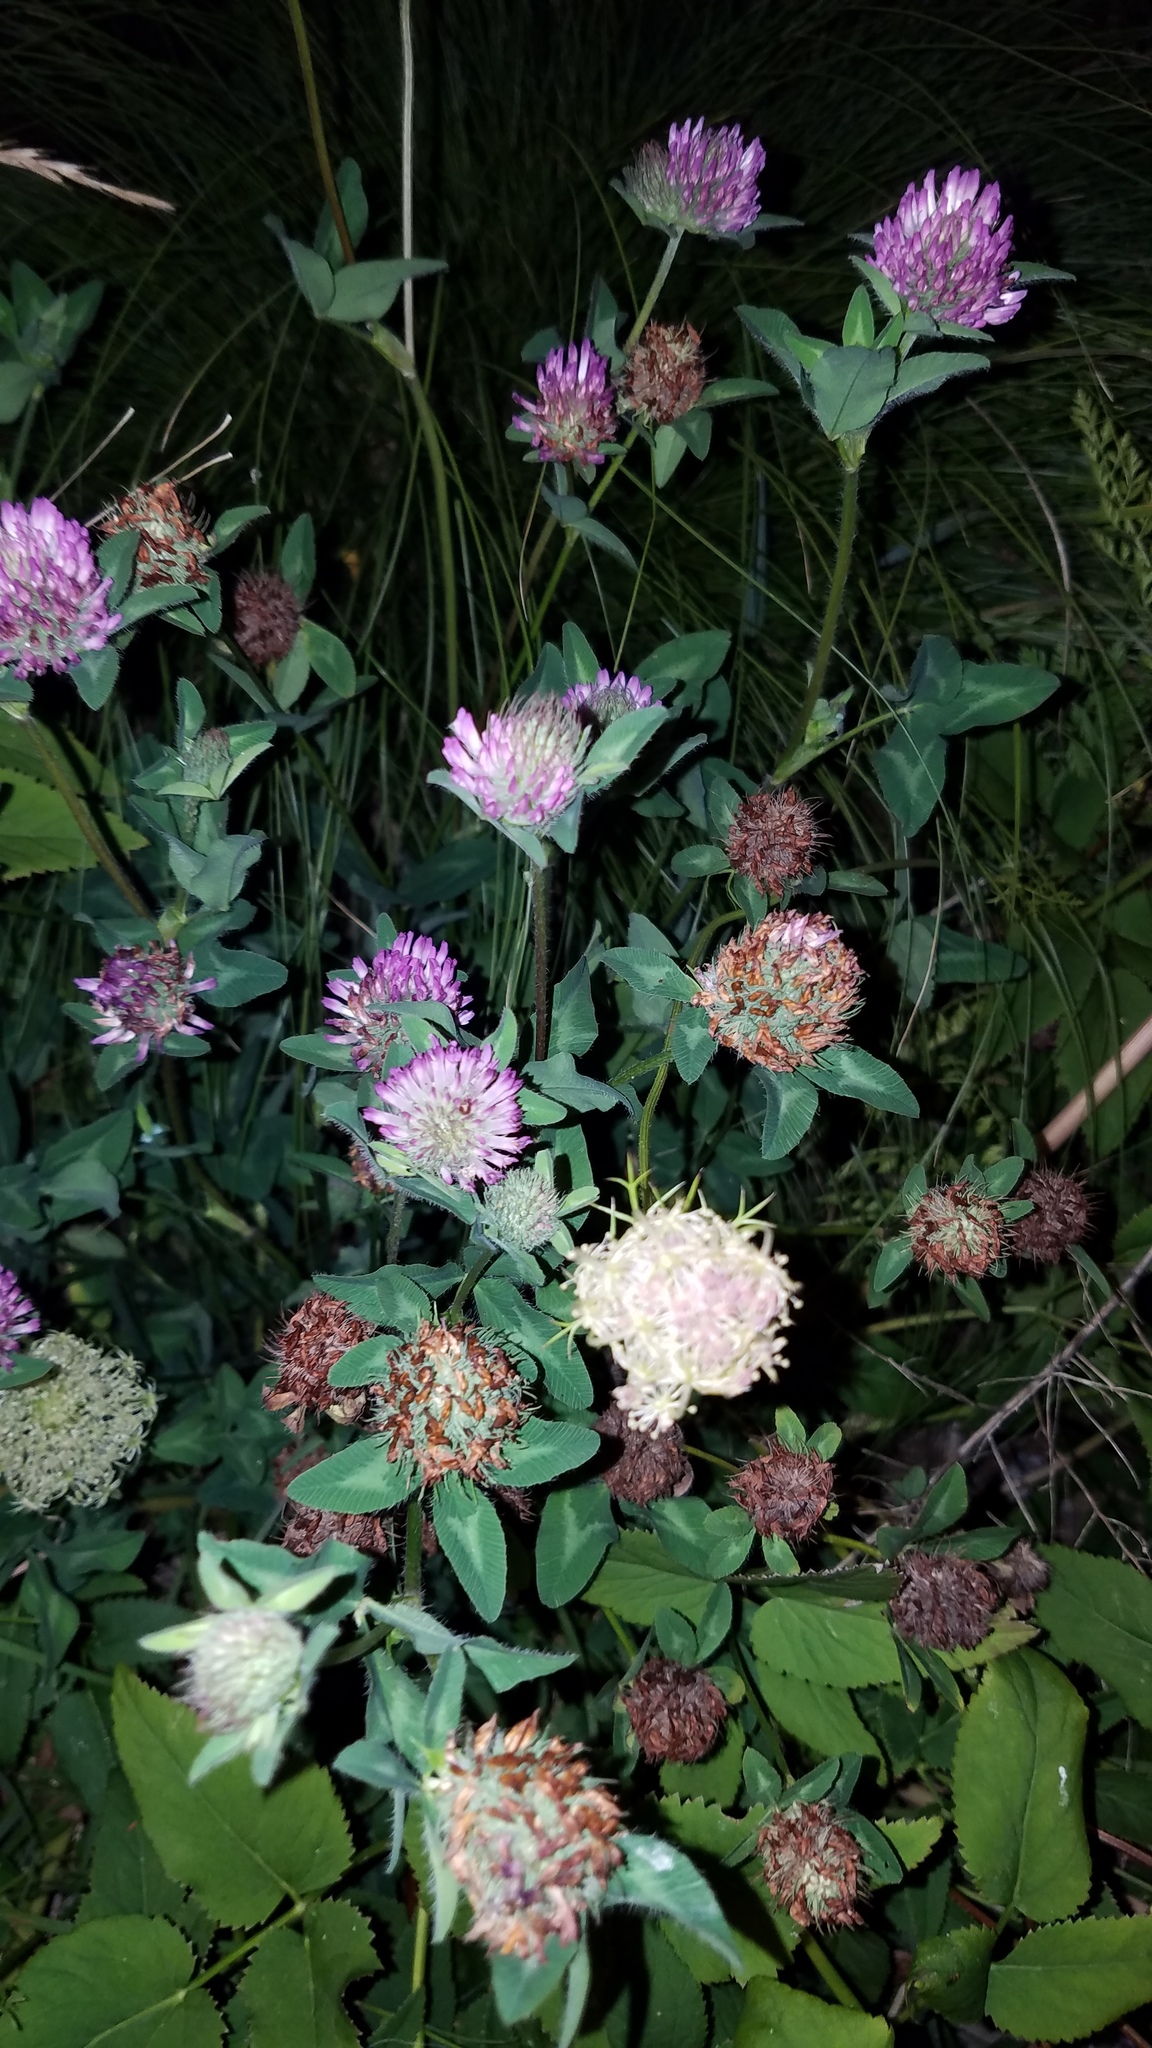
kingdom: Plantae
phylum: Tracheophyta
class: Magnoliopsida
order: Fabales
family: Fabaceae
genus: Trifolium
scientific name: Trifolium pratense
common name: Red clover
